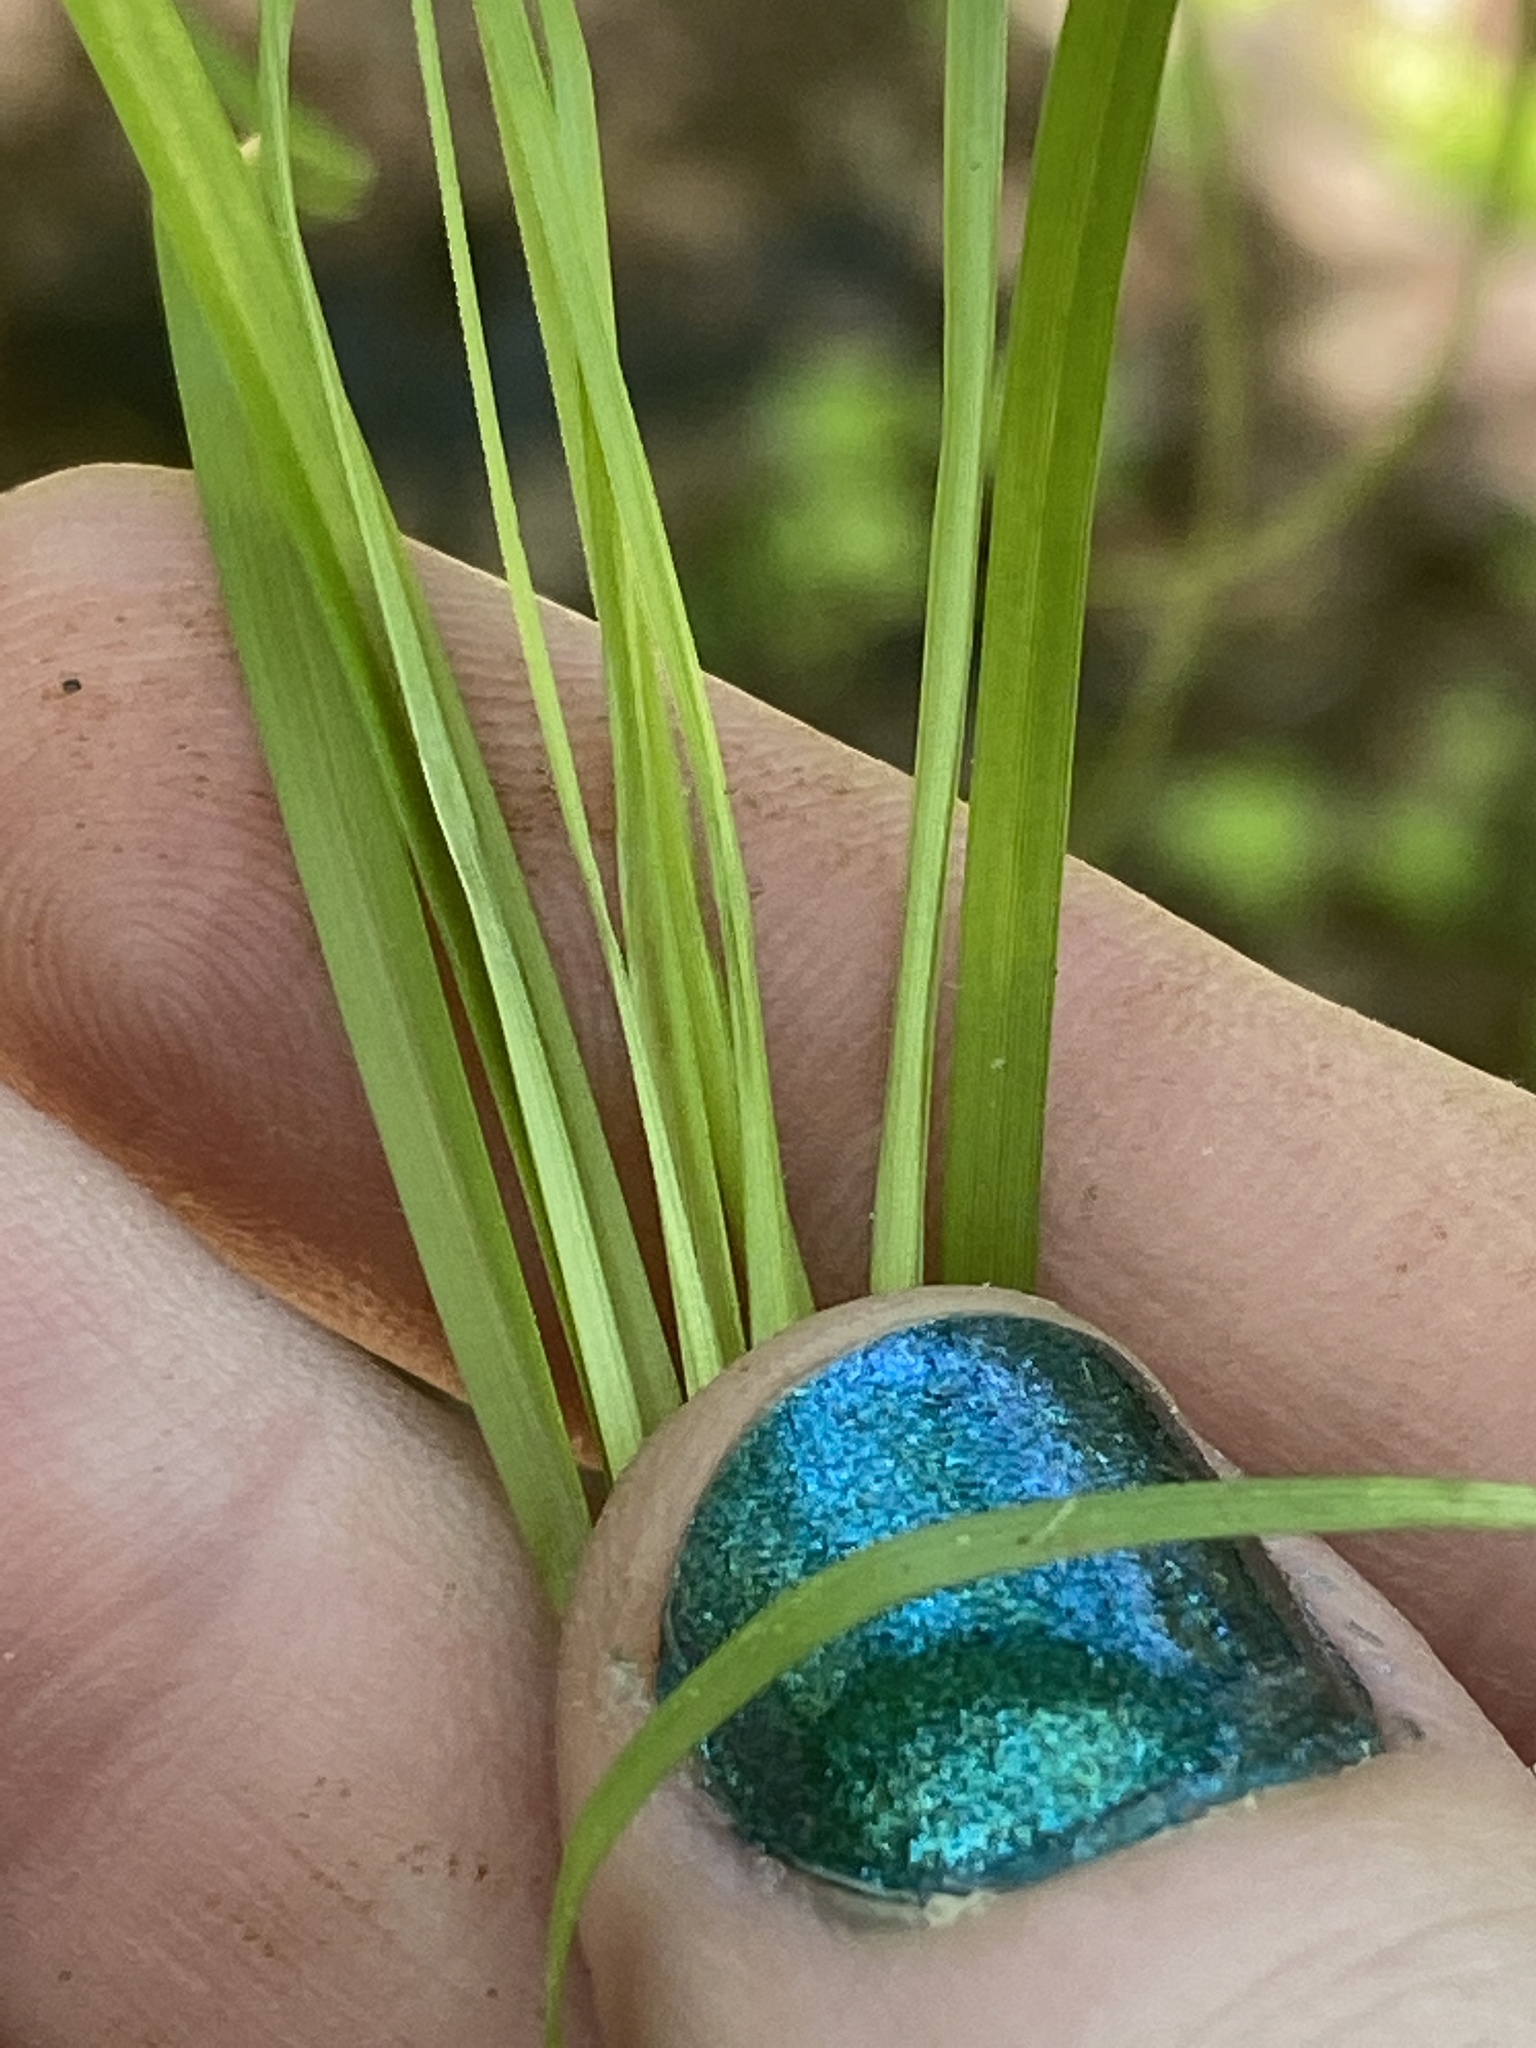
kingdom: Plantae
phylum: Tracheophyta
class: Liliopsida
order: Poales
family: Cyperaceae
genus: Carex
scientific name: Carex albicans
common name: Bellow-beaked sedge
